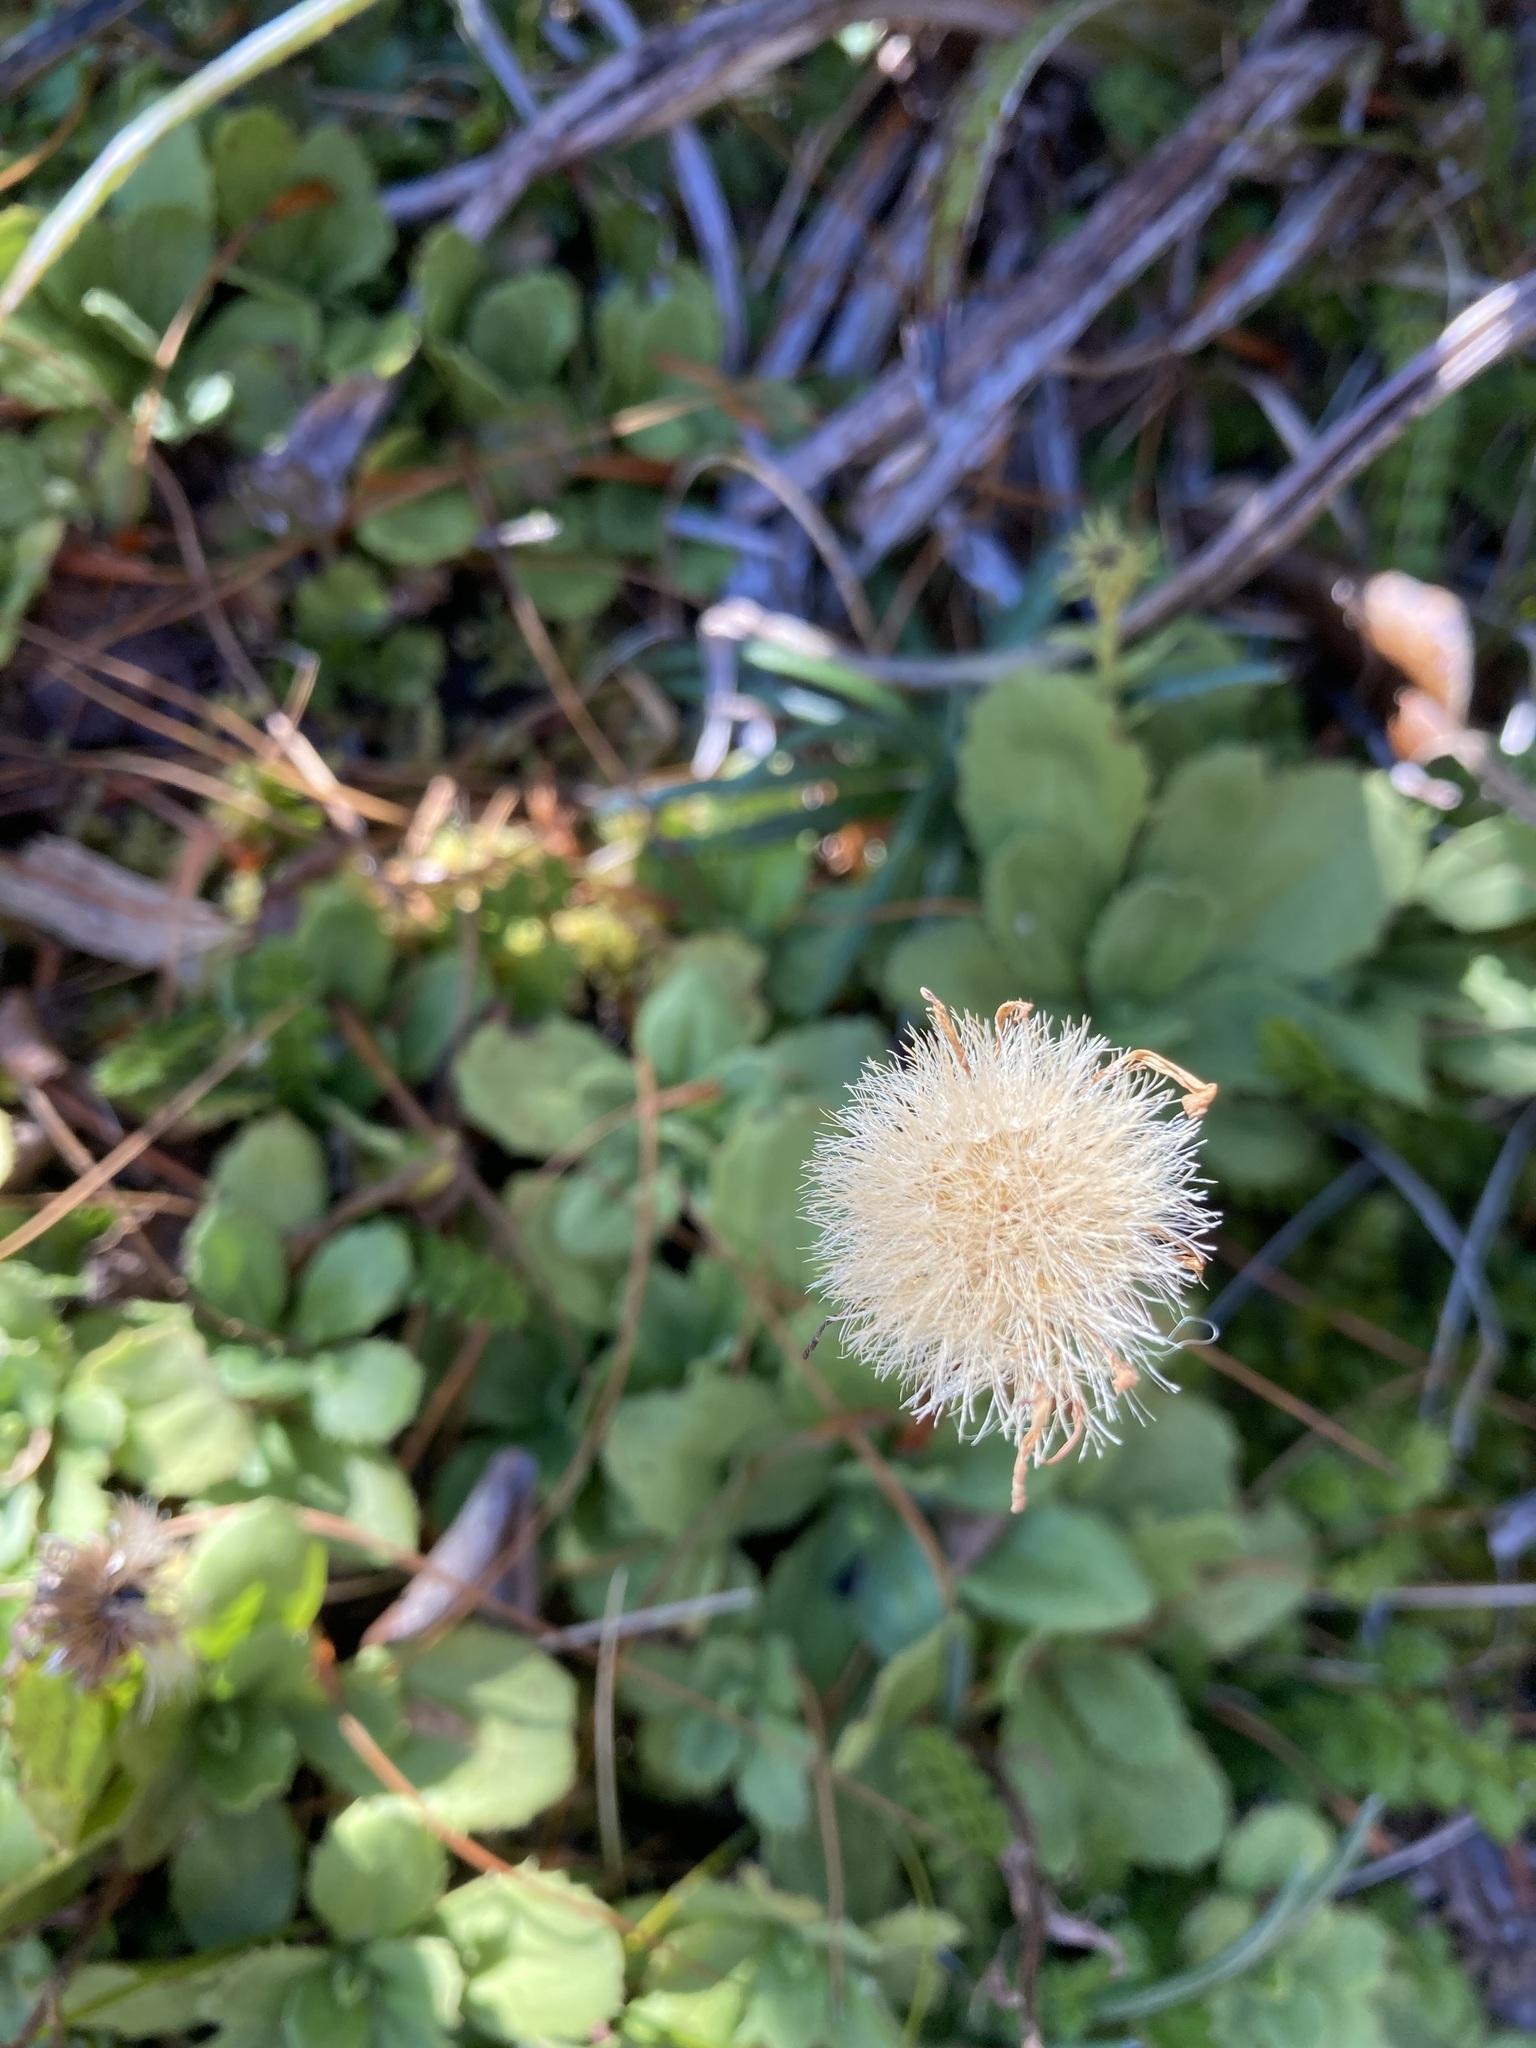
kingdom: Plantae
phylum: Tracheophyta
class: Magnoliopsida
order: Asterales
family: Asteraceae
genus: Celmisia
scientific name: Celmisia glandulosa
